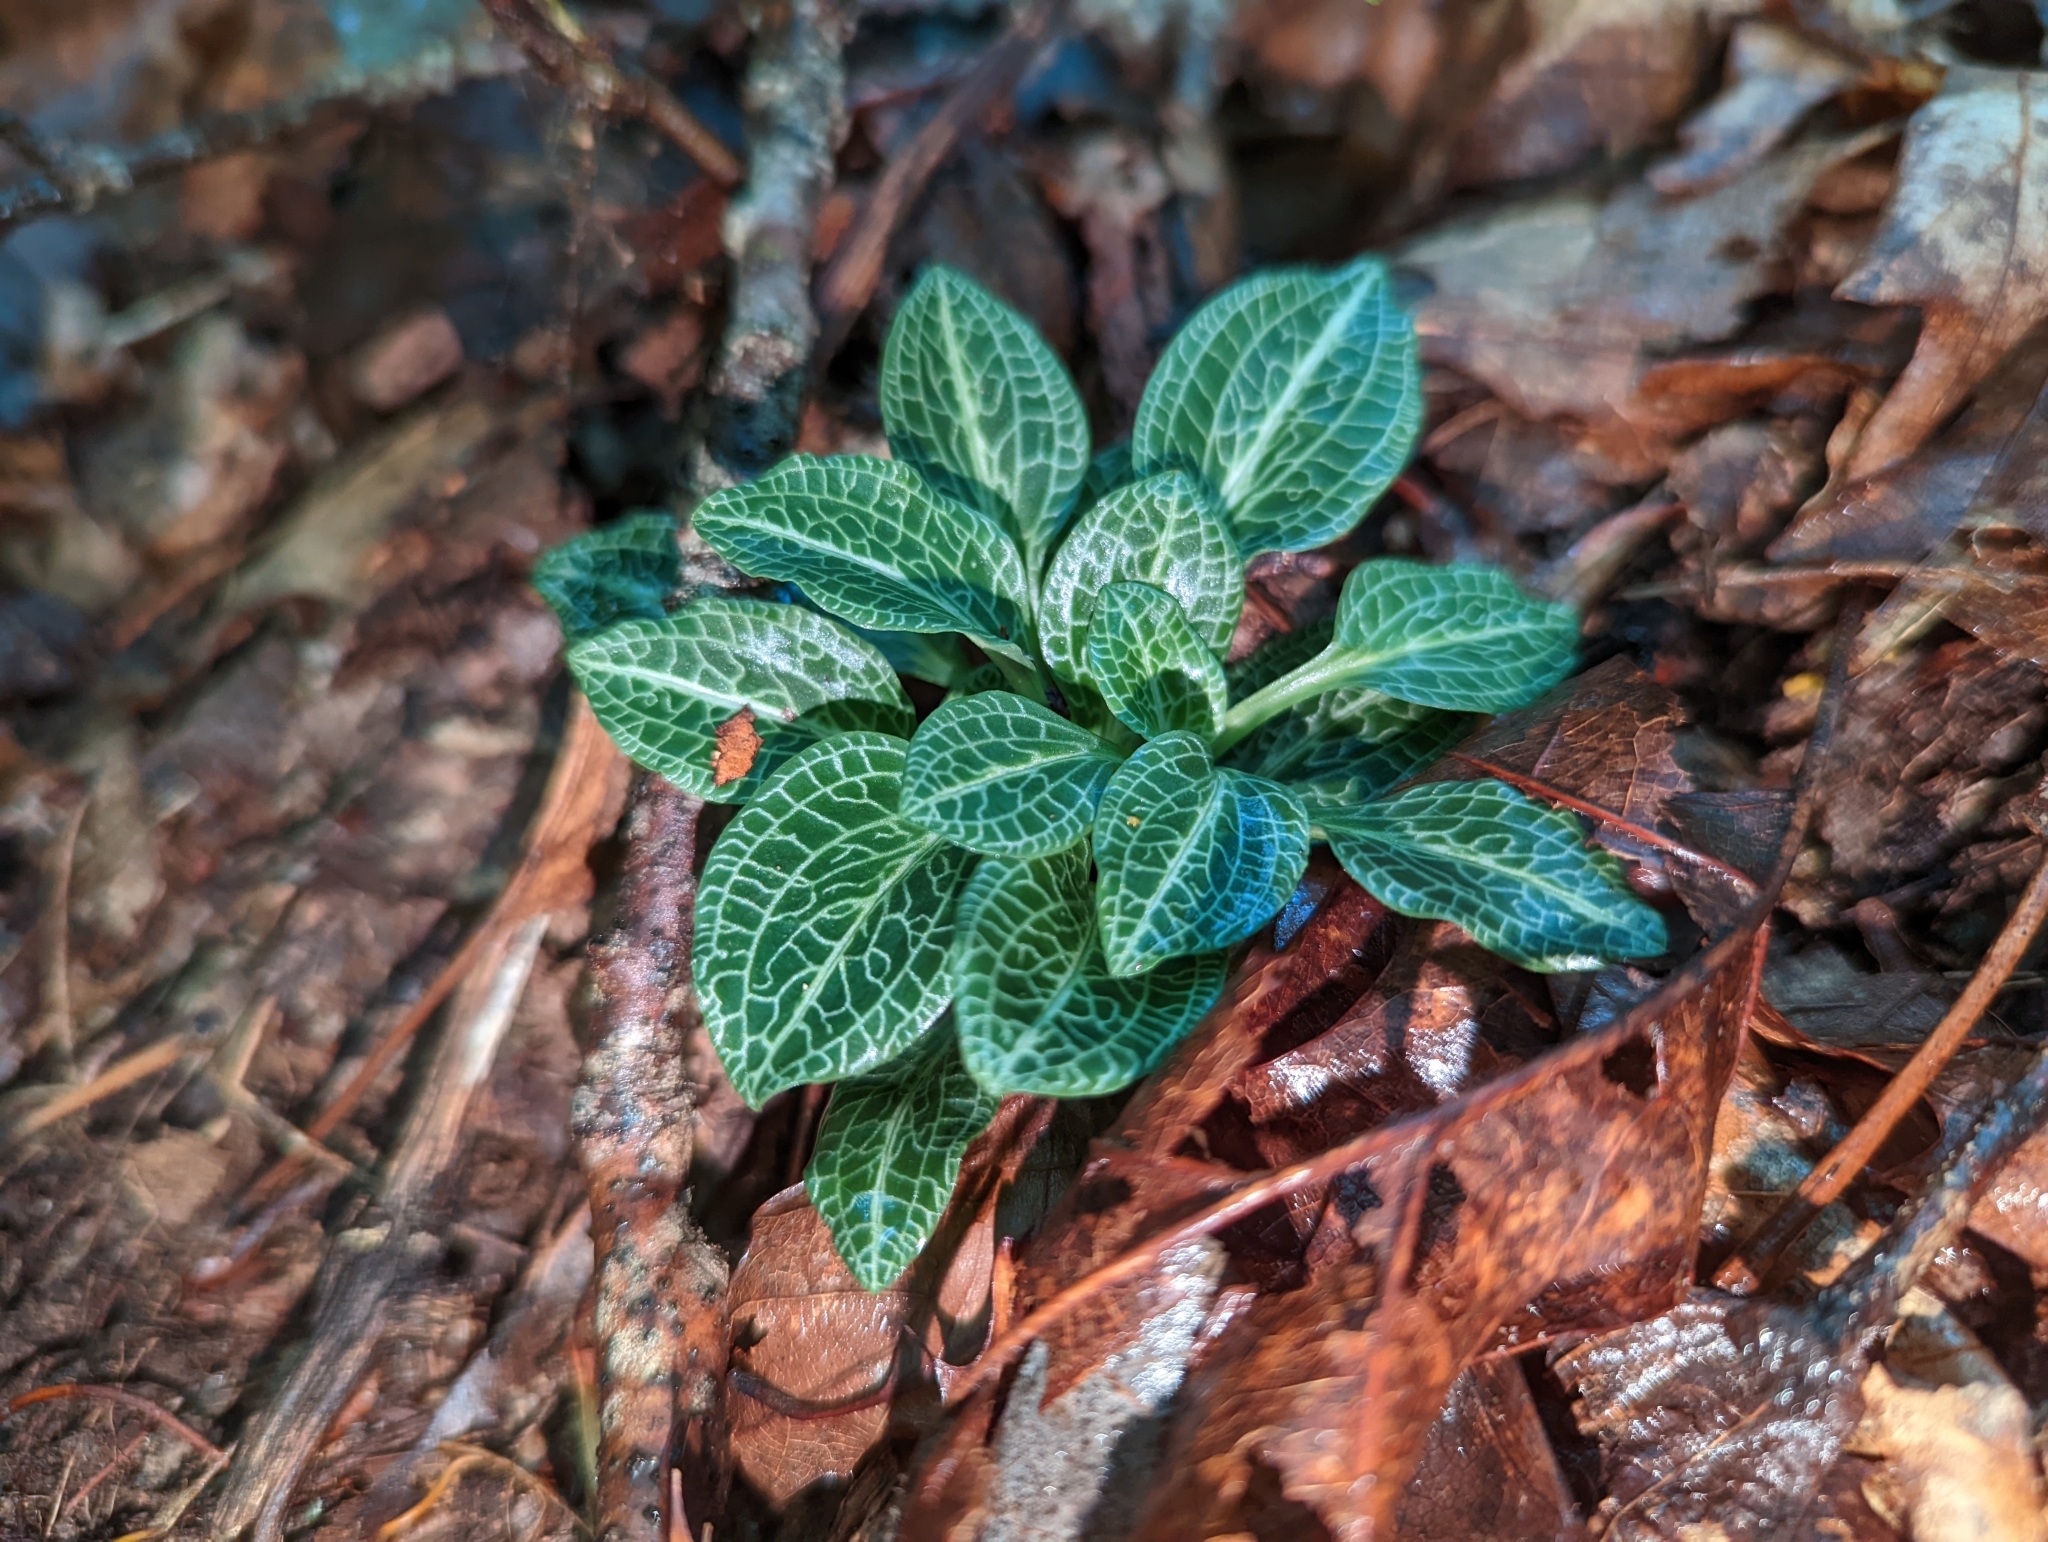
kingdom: Plantae
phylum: Tracheophyta
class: Liliopsida
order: Asparagales
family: Orchidaceae
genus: Goodyera
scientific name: Goodyera pubescens
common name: Downy rattlesnake-plantain
